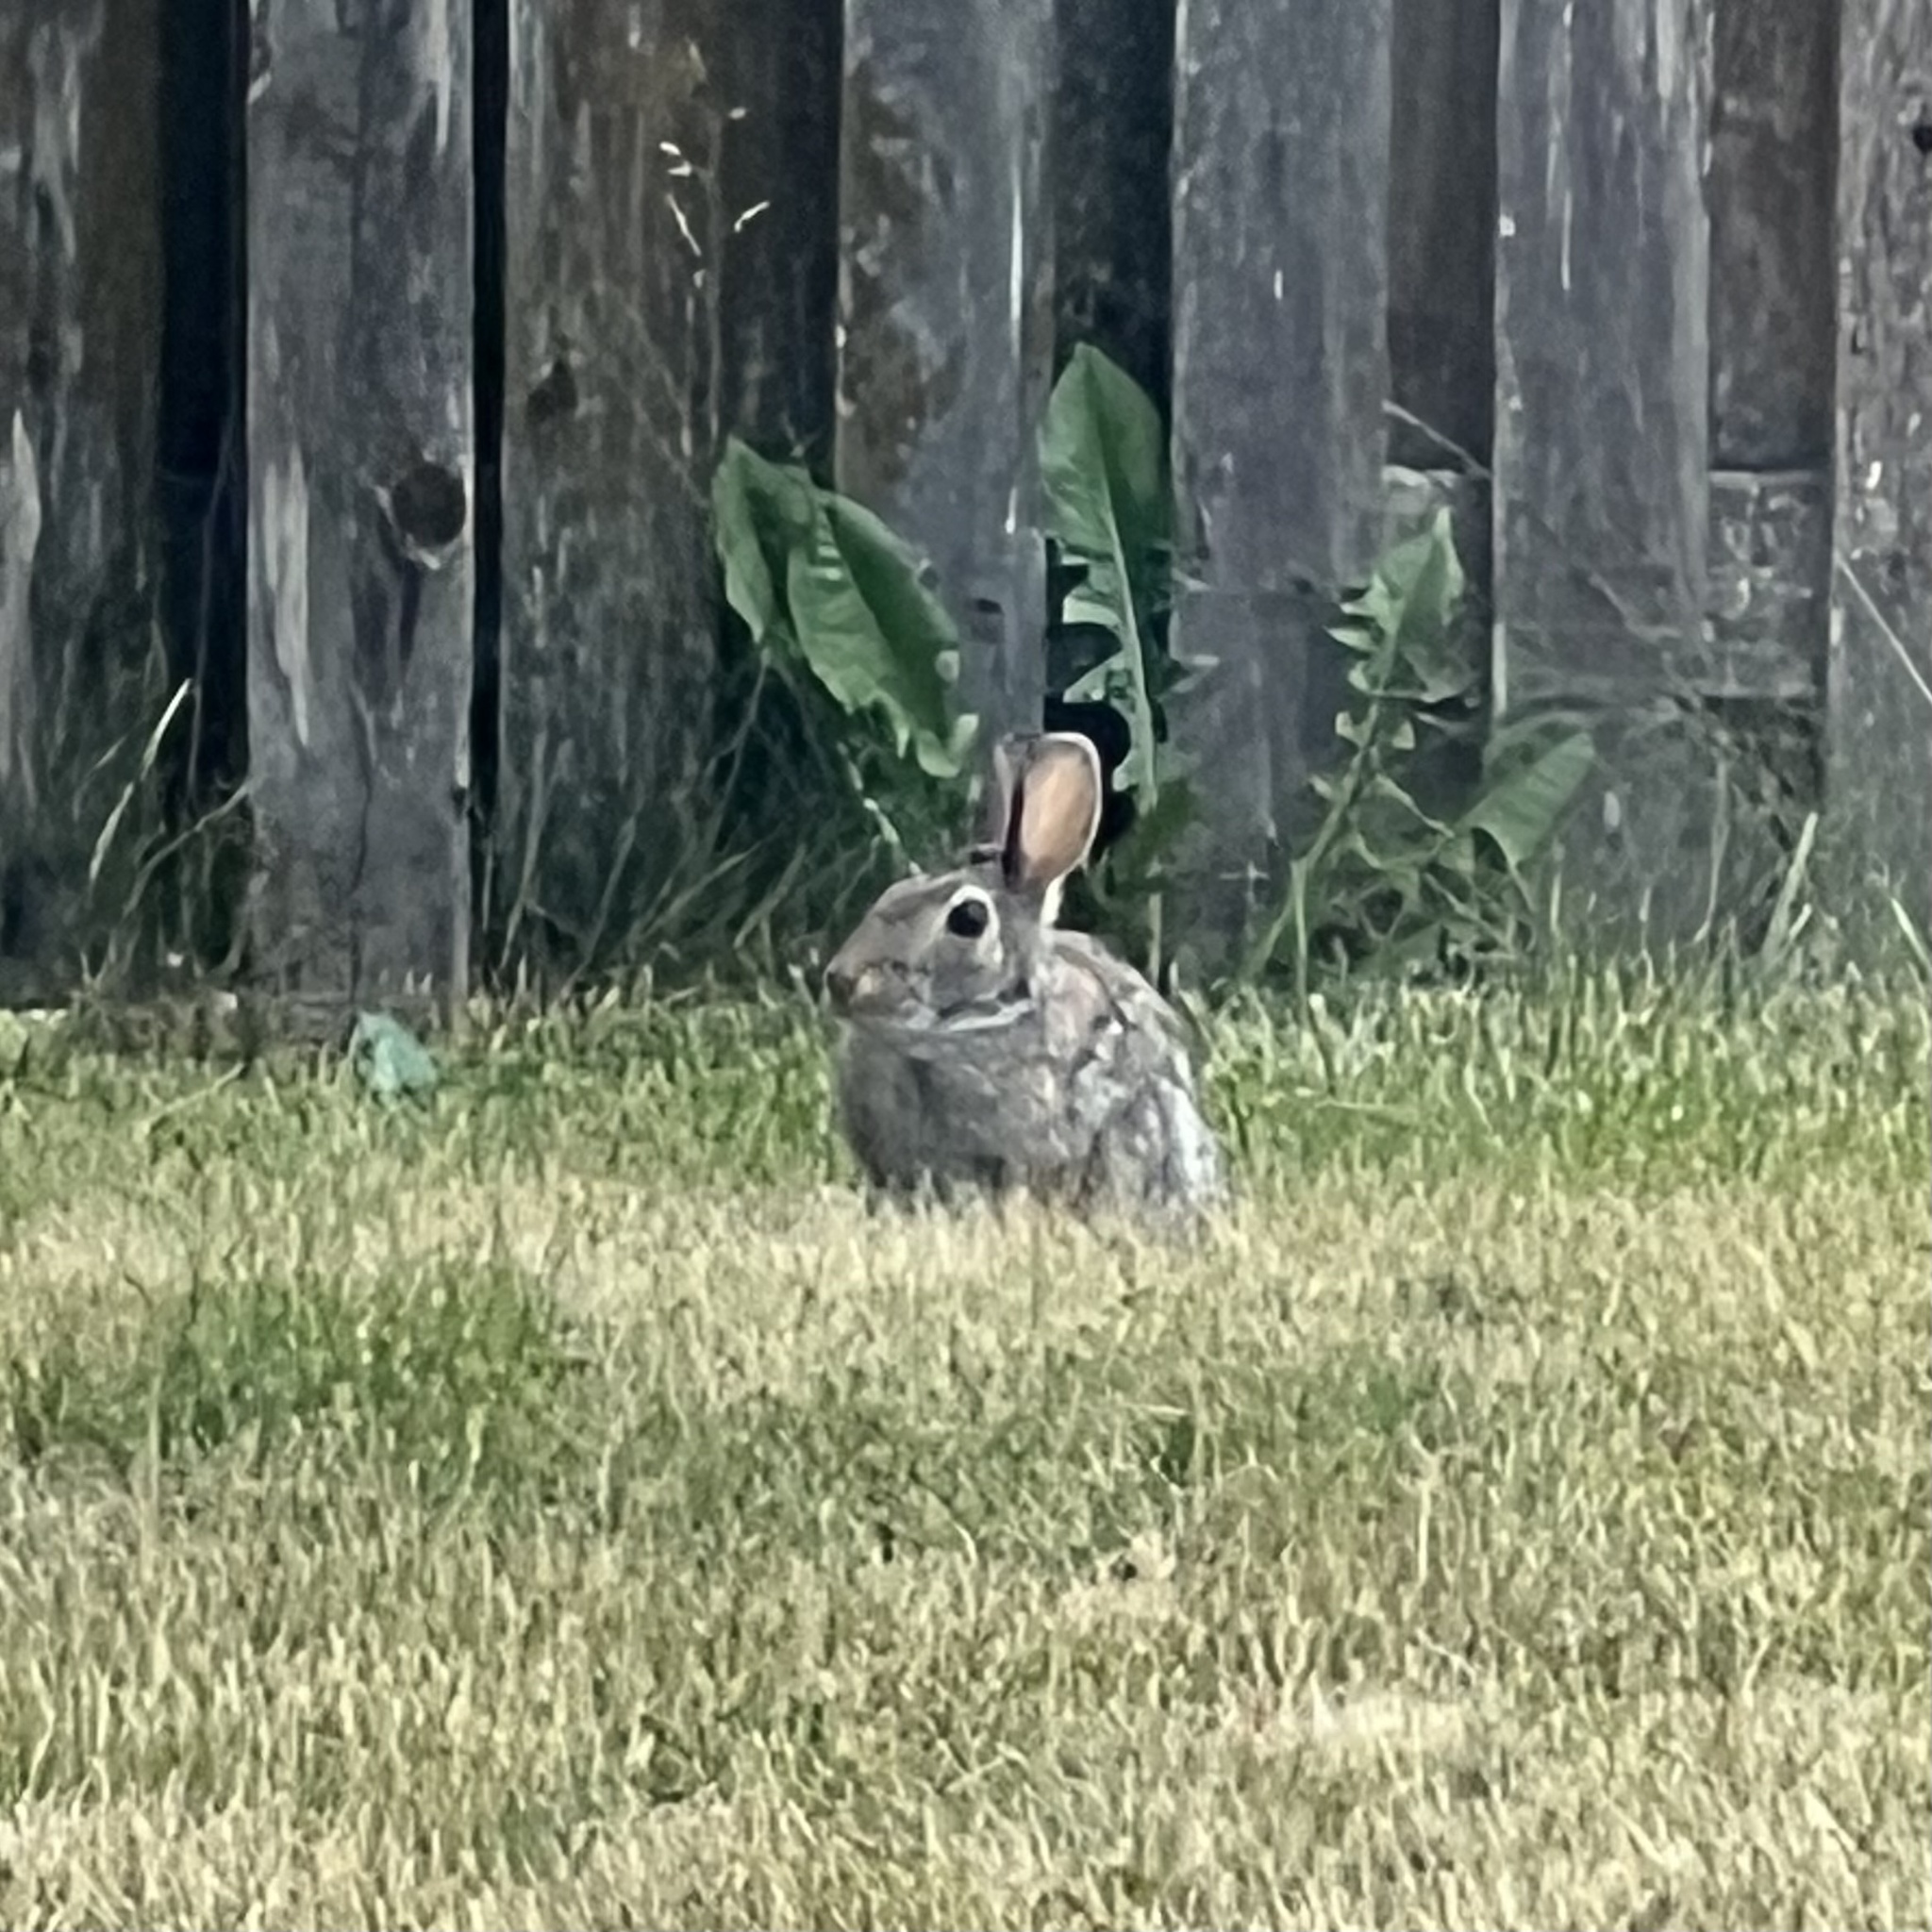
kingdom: Animalia
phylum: Chordata
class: Mammalia
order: Lagomorpha
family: Leporidae
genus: Sylvilagus
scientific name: Sylvilagus floridanus
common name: Eastern cottontail
